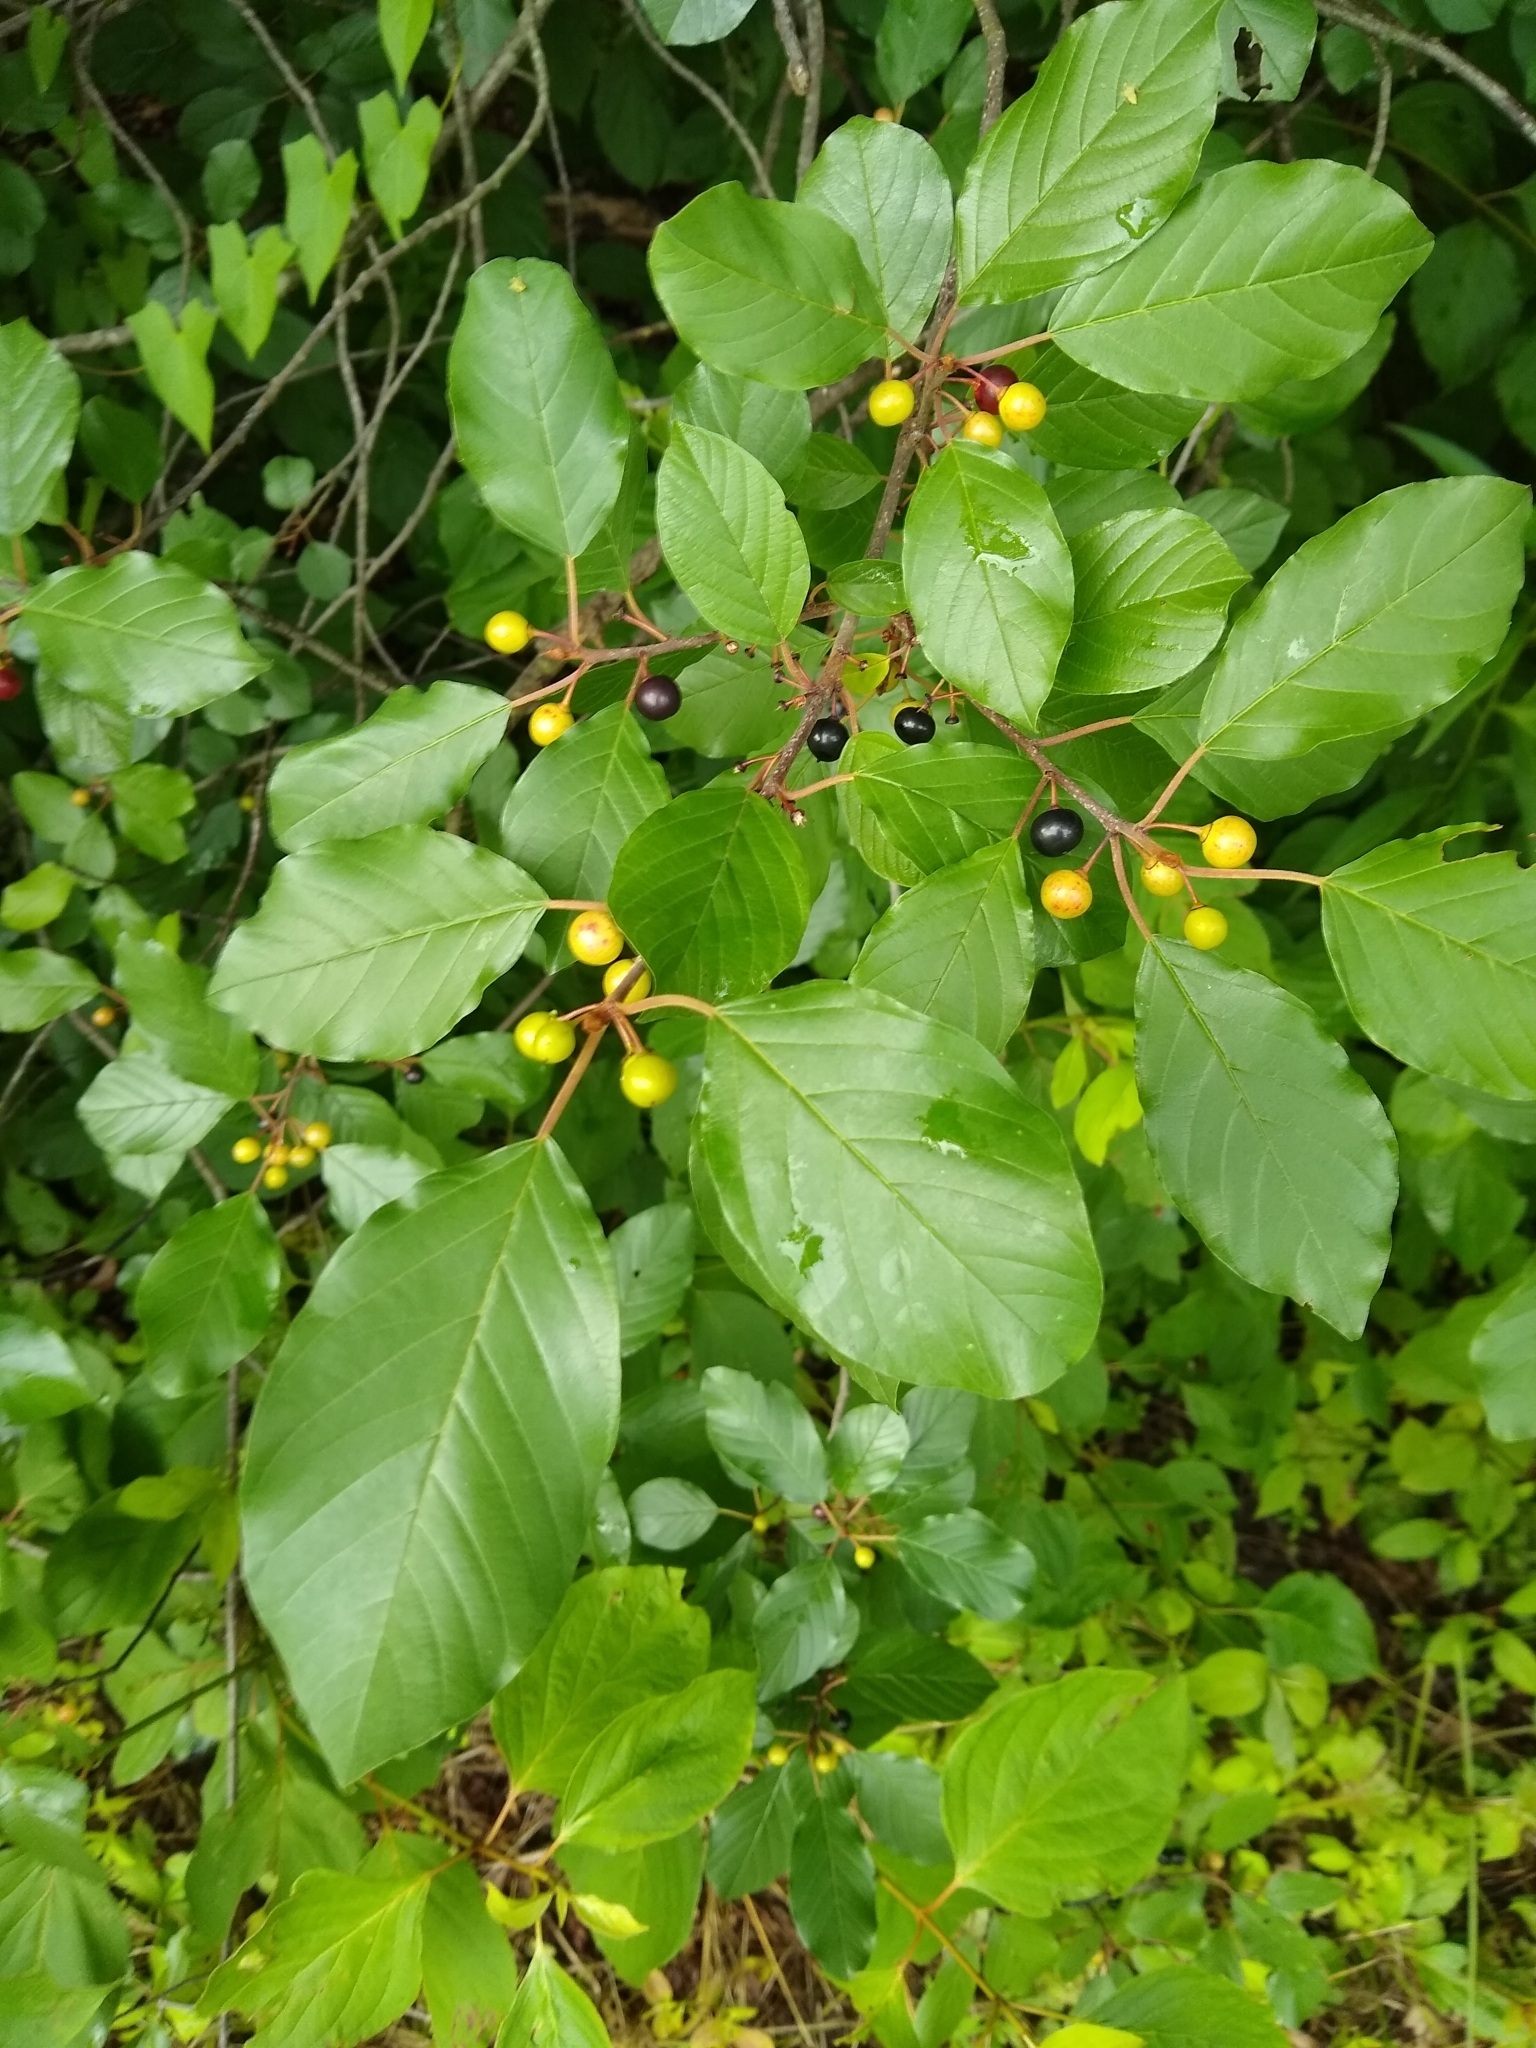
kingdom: Plantae
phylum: Tracheophyta
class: Magnoliopsida
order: Rosales
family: Rhamnaceae
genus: Frangula
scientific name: Frangula alnus
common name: Alder buckthorn
